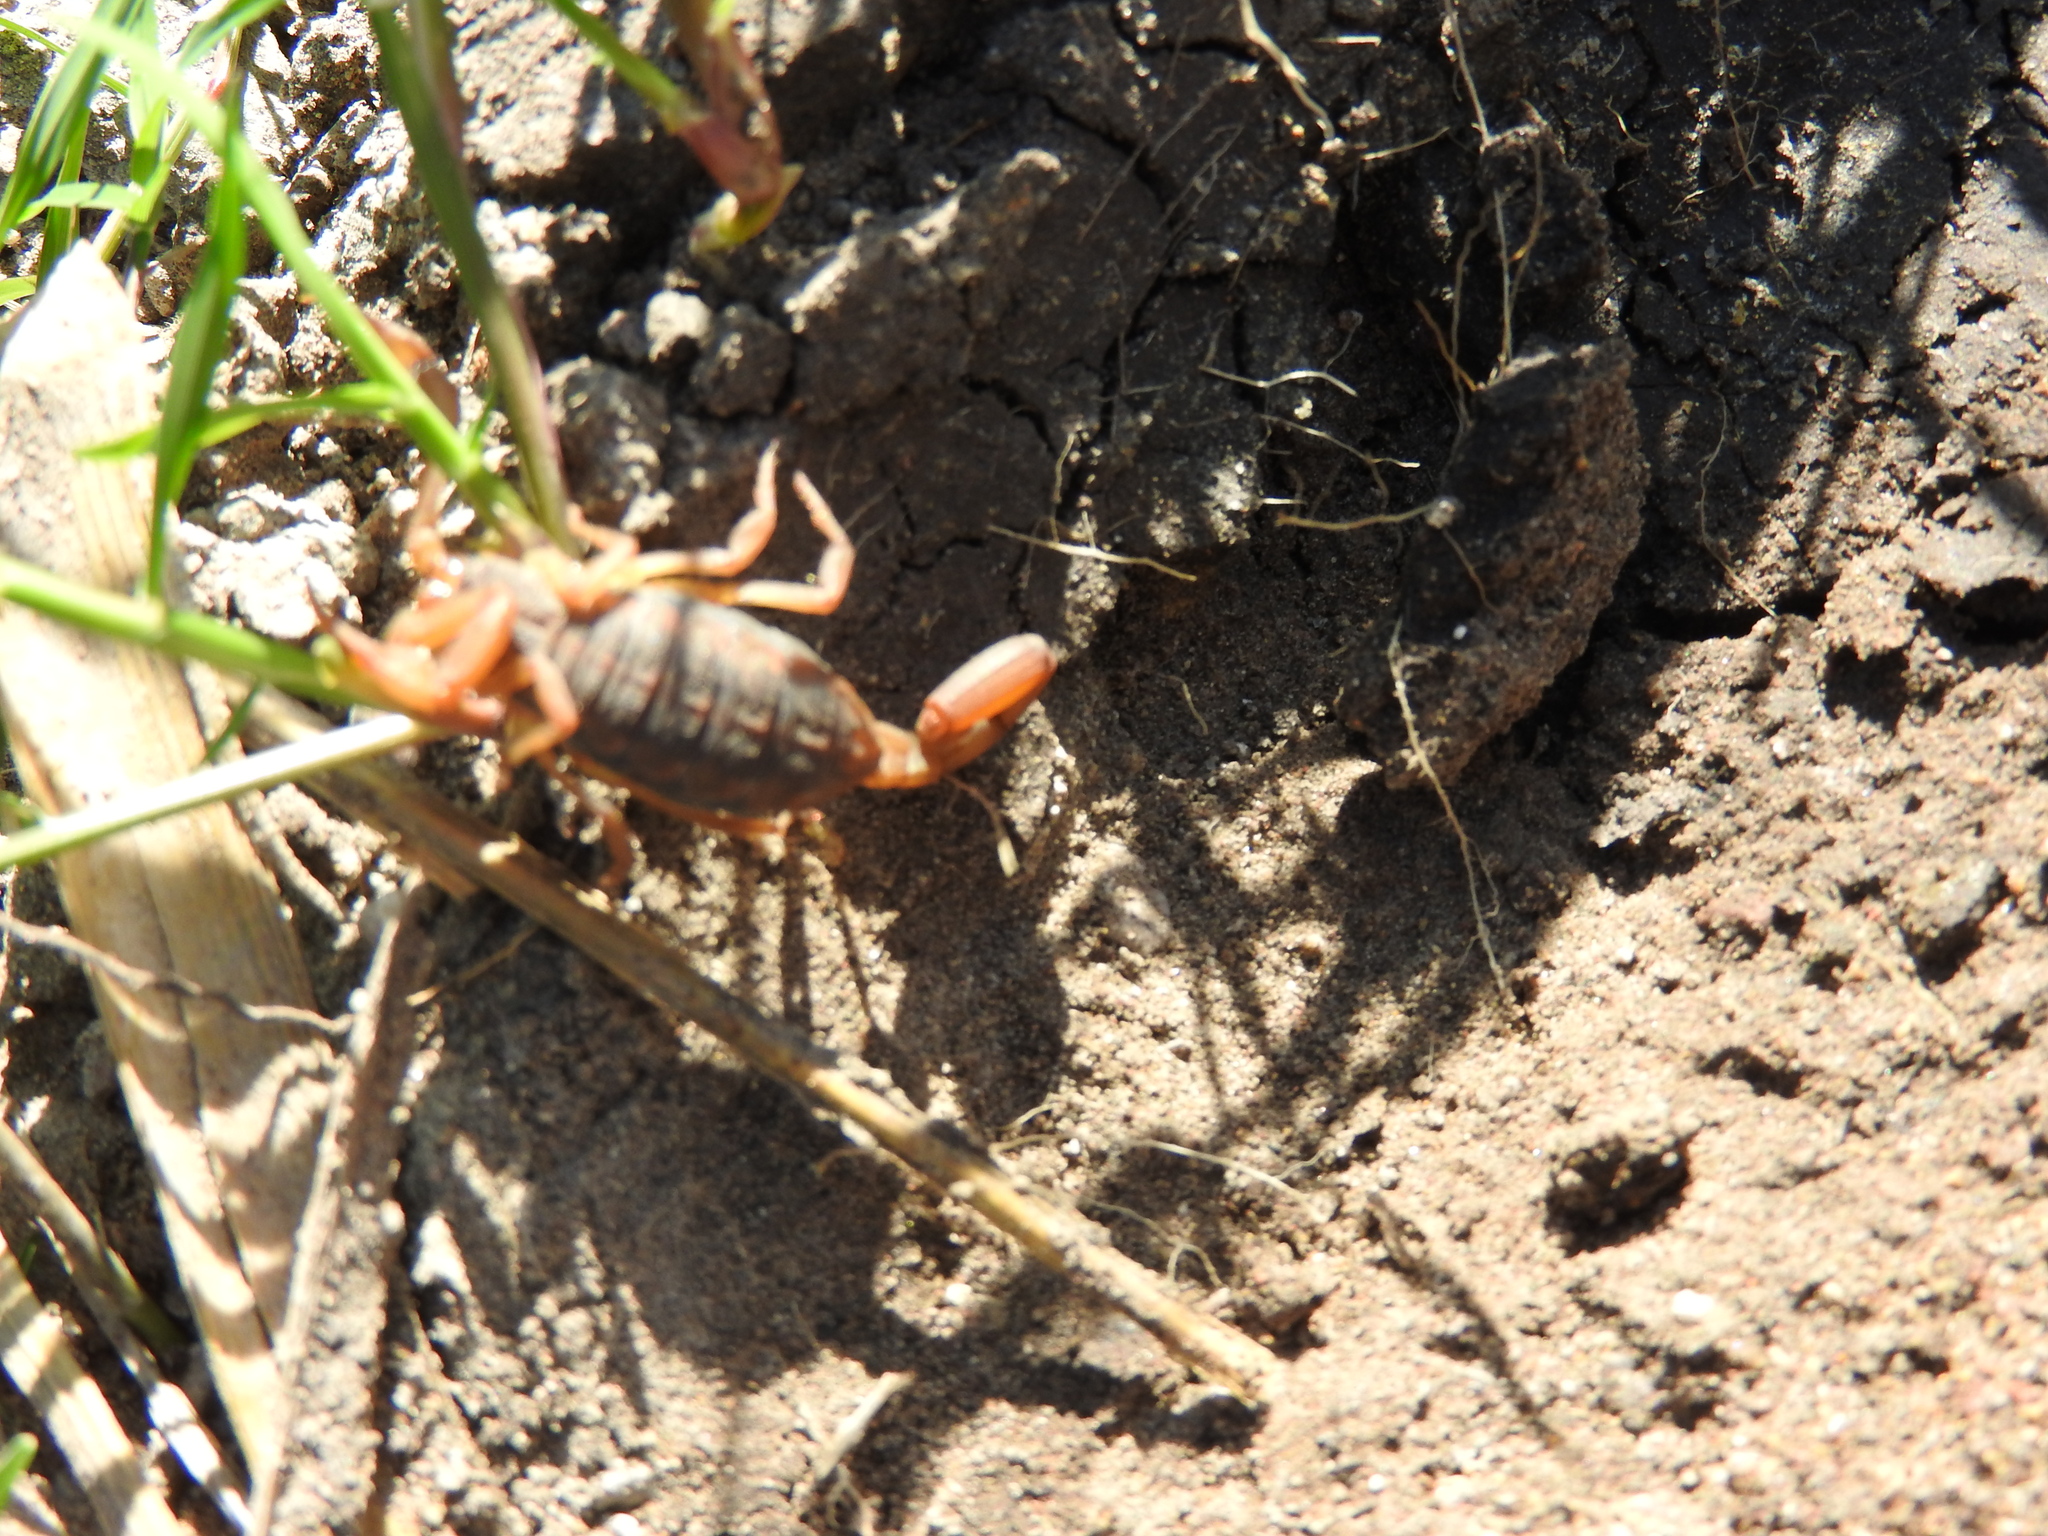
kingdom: Animalia
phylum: Arthropoda
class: Arachnida
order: Scorpiones
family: Buthidae
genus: Centruroides
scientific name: Centruroides ornatus
